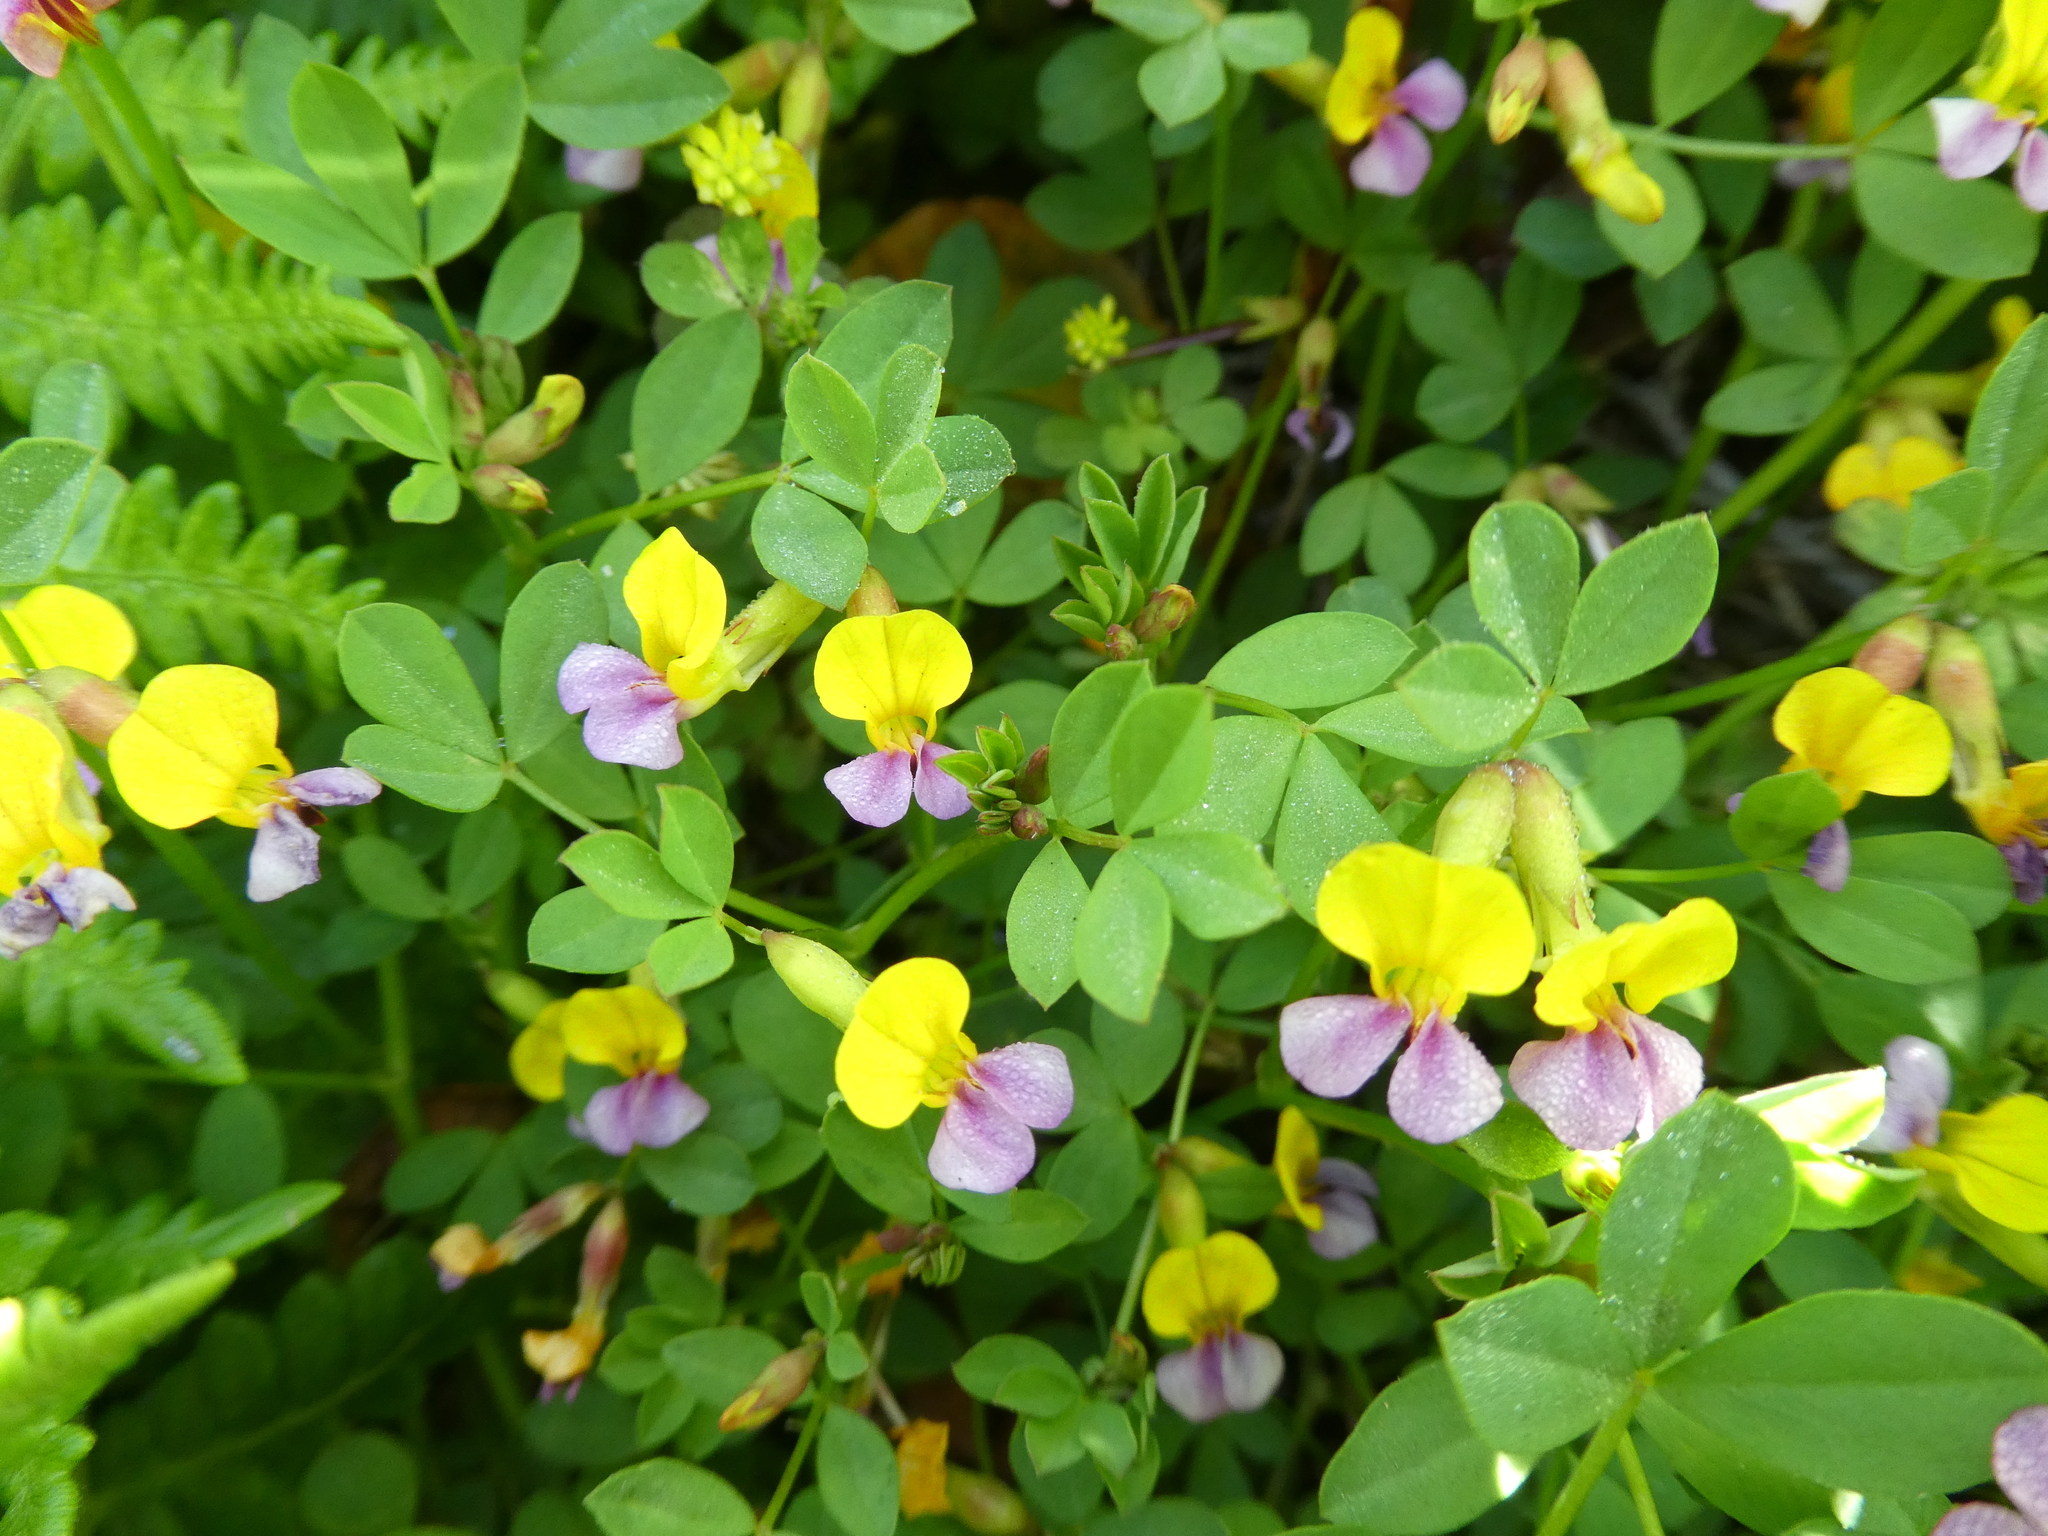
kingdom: Plantae
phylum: Tracheophyta
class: Magnoliopsida
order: Fabales
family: Fabaceae
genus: Hosackia
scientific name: Hosackia gracilis
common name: Seaside bird's-foot lotus
